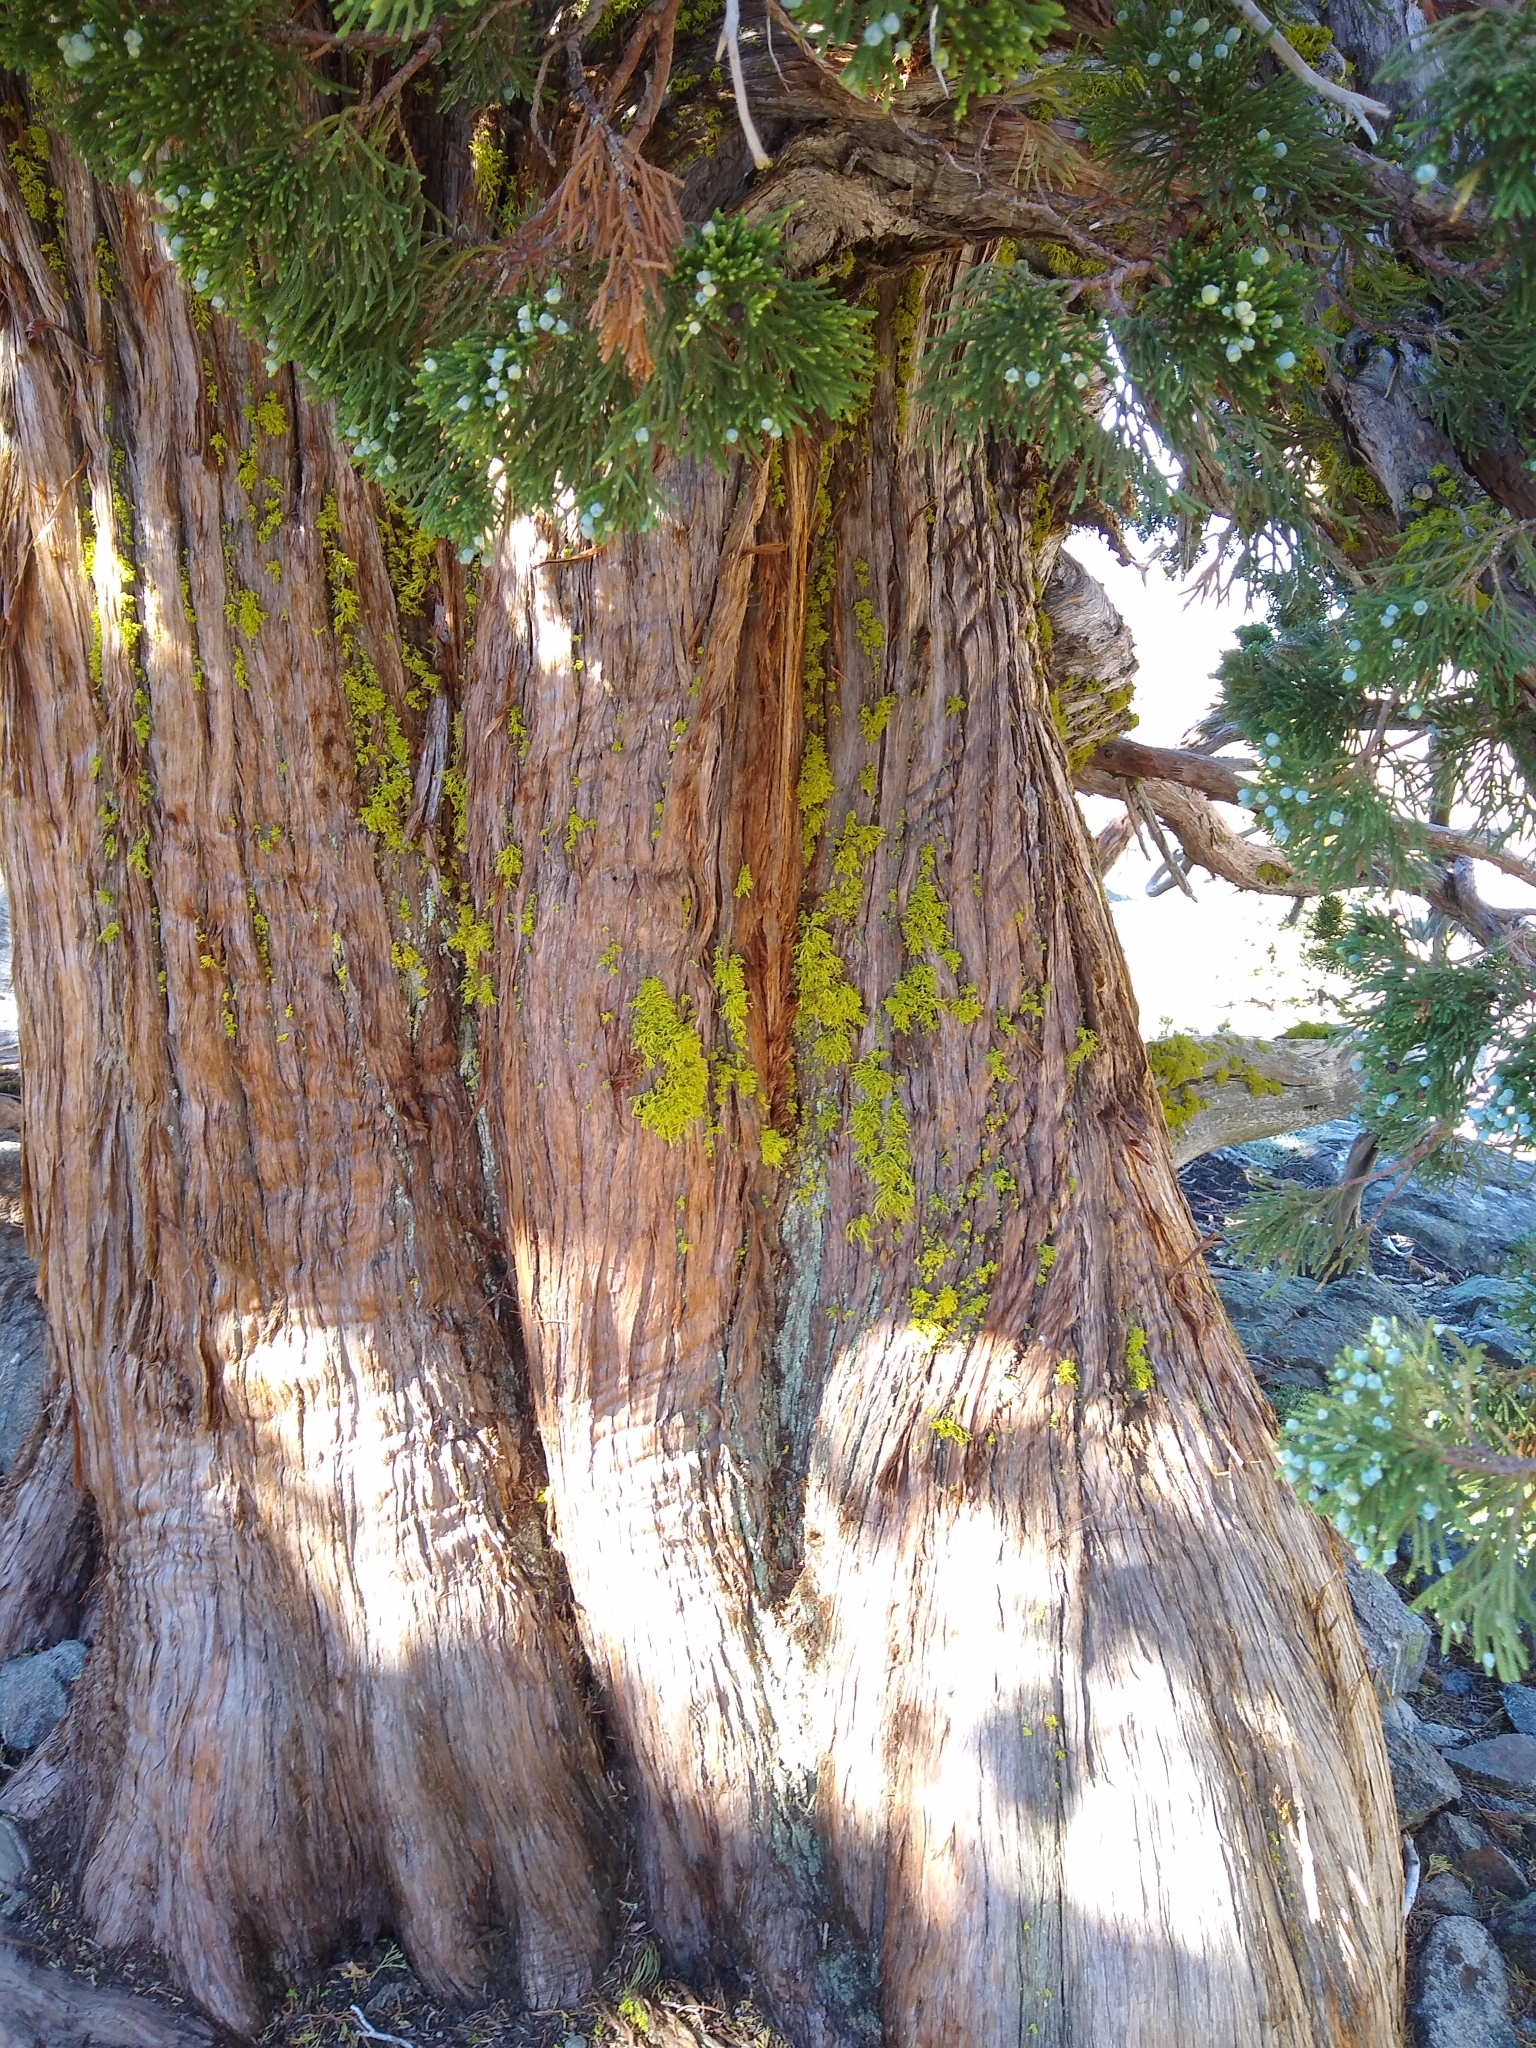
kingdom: Plantae
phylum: Tracheophyta
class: Pinopsida
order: Pinales
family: Cupressaceae
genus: Juniperus
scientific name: Juniperus occidentalis
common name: Western juniper
